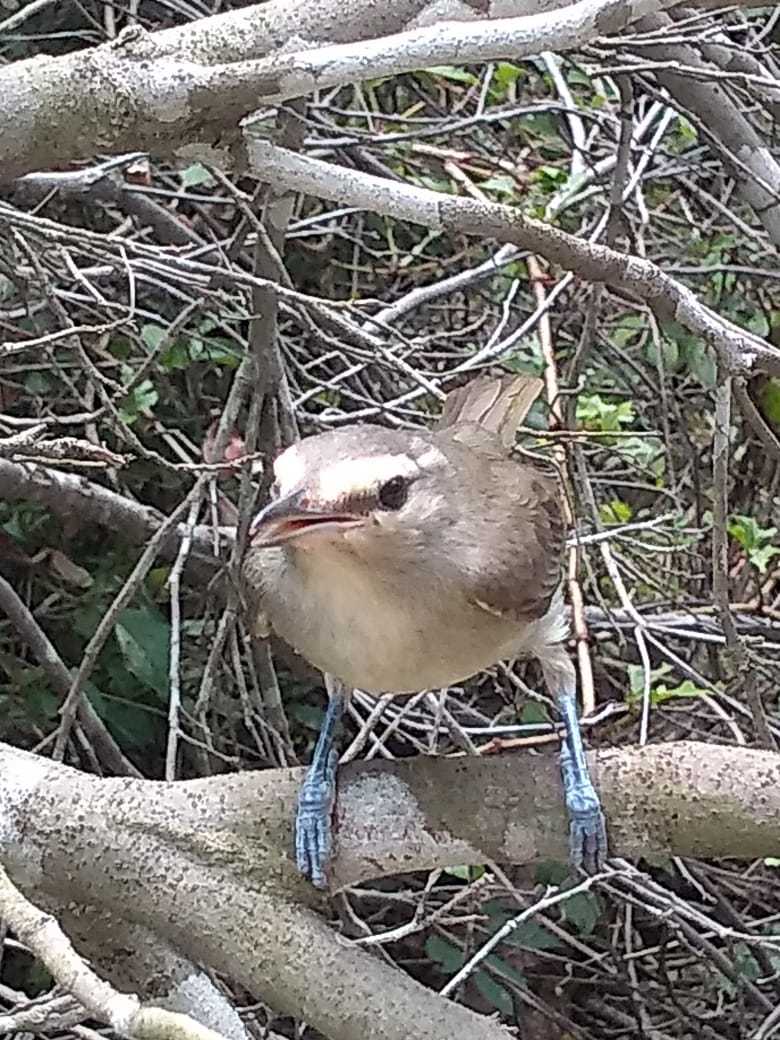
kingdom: Animalia
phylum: Chordata
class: Aves
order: Passeriformes
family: Vireonidae
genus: Vireo
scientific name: Vireo magister
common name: Yucatan vireo
